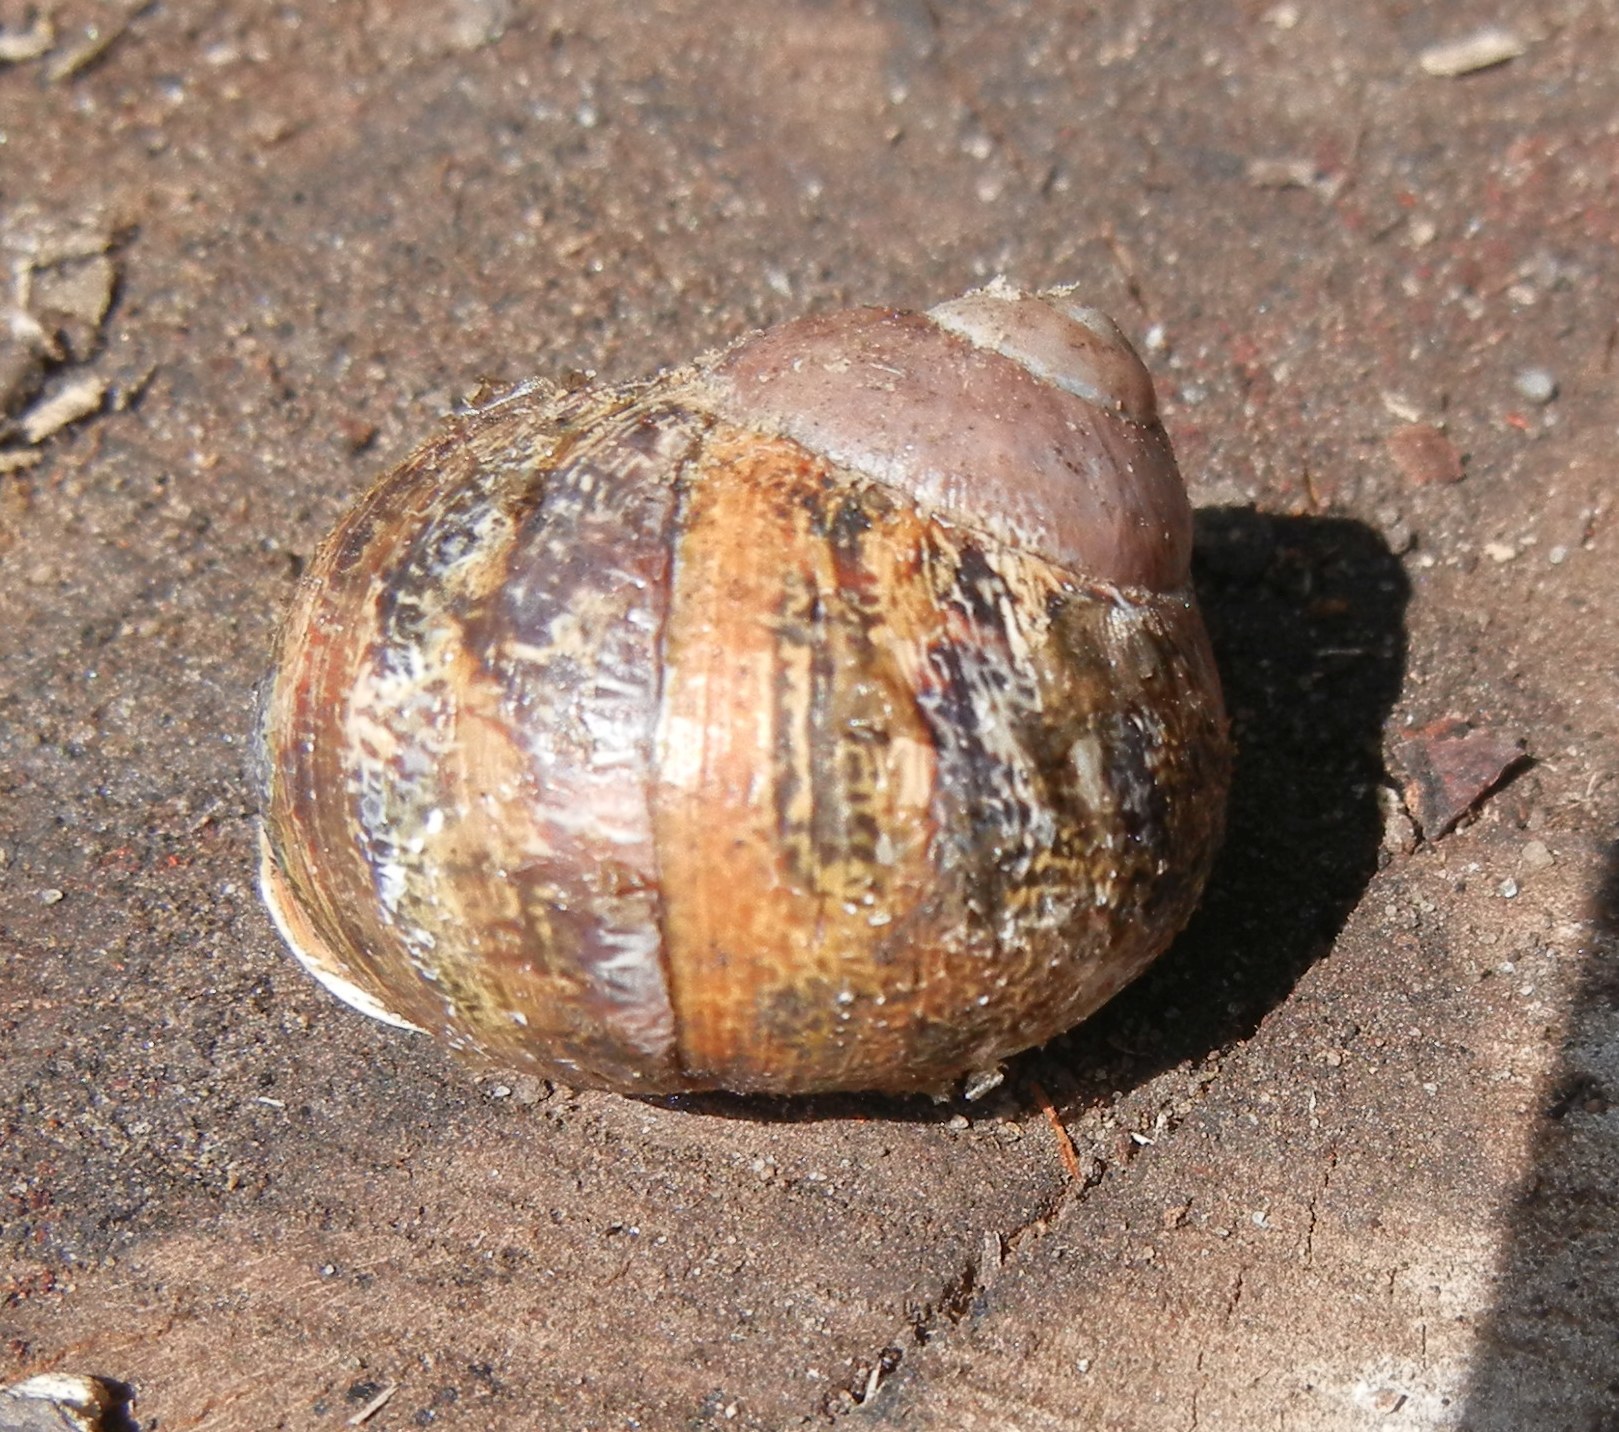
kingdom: Animalia
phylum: Mollusca
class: Gastropoda
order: Stylommatophora
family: Helicidae
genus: Cornu
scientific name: Cornu aspersum
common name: Brown garden snail
